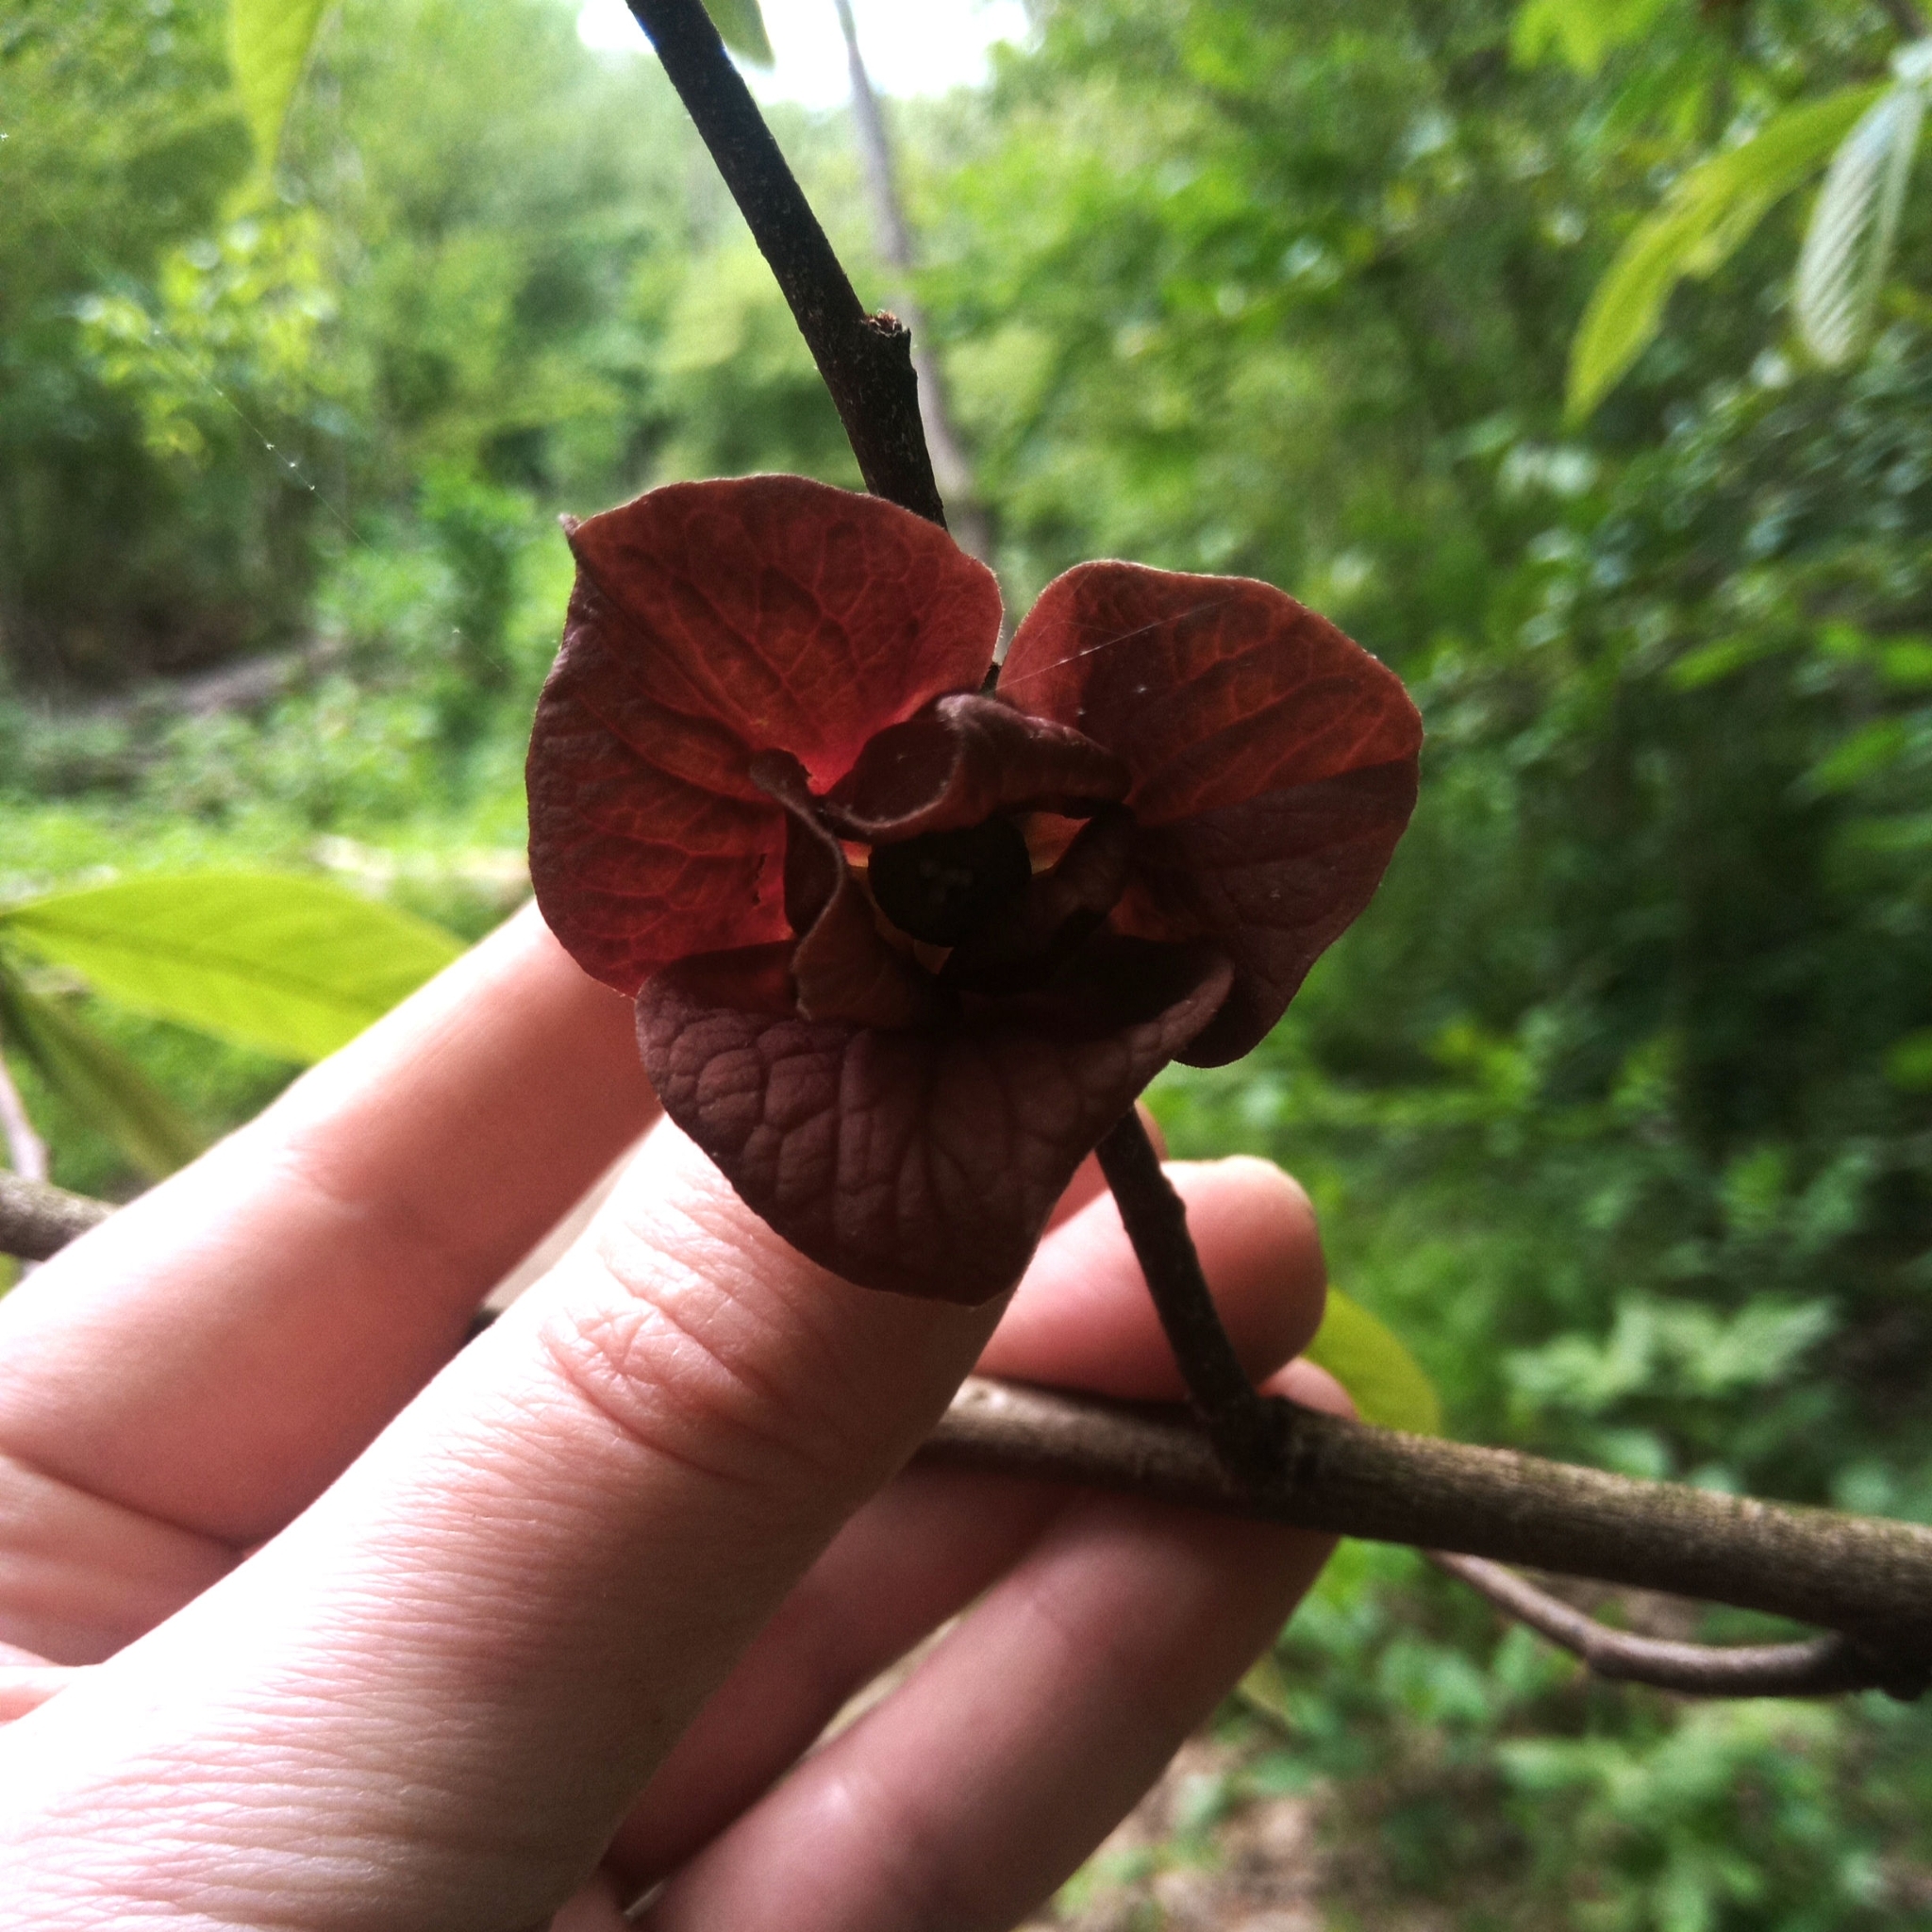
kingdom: Plantae
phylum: Tracheophyta
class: Magnoliopsida
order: Magnoliales
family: Annonaceae
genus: Asimina
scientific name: Asimina triloba
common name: Dog-banana
